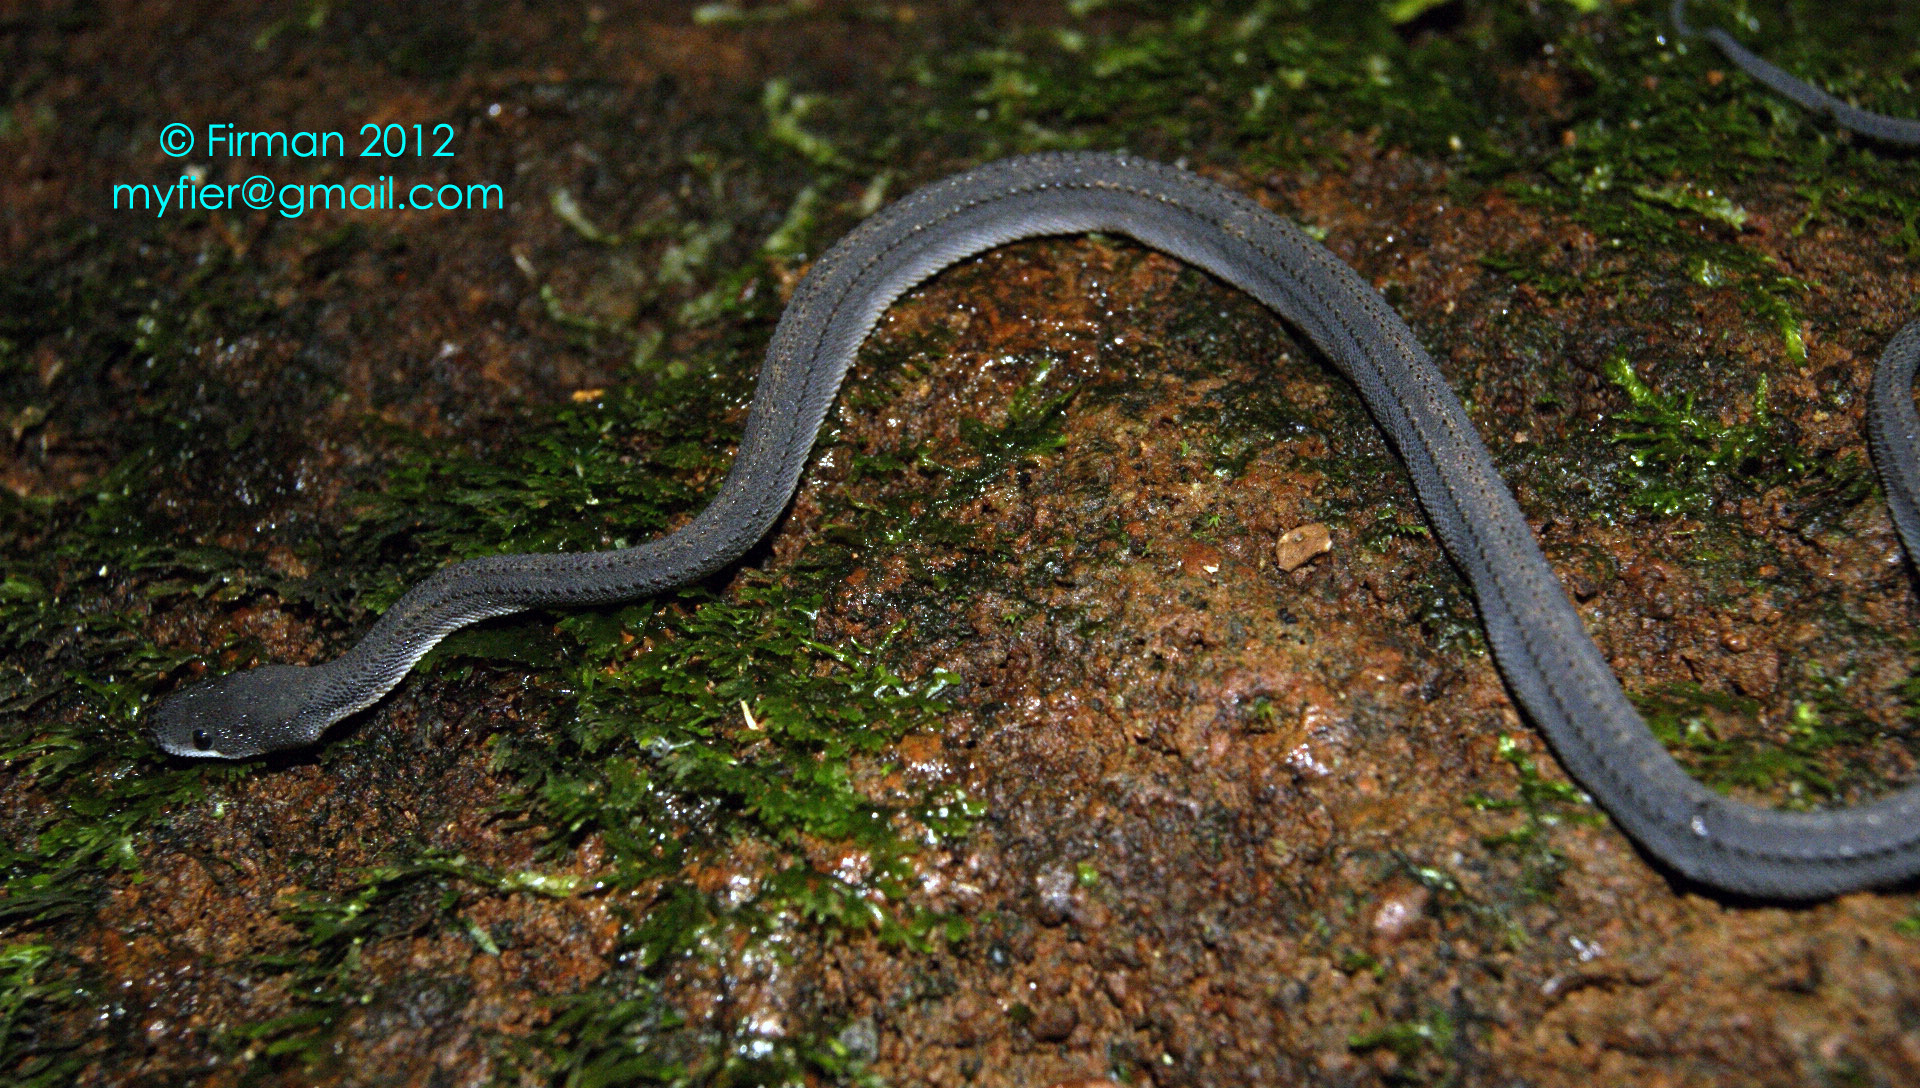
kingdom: Animalia
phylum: Chordata
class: Squamata
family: Xenodermidae
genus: Xenodermus
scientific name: Xenodermus javanicus
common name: Rough-backed litter snake/xenodermine snake
